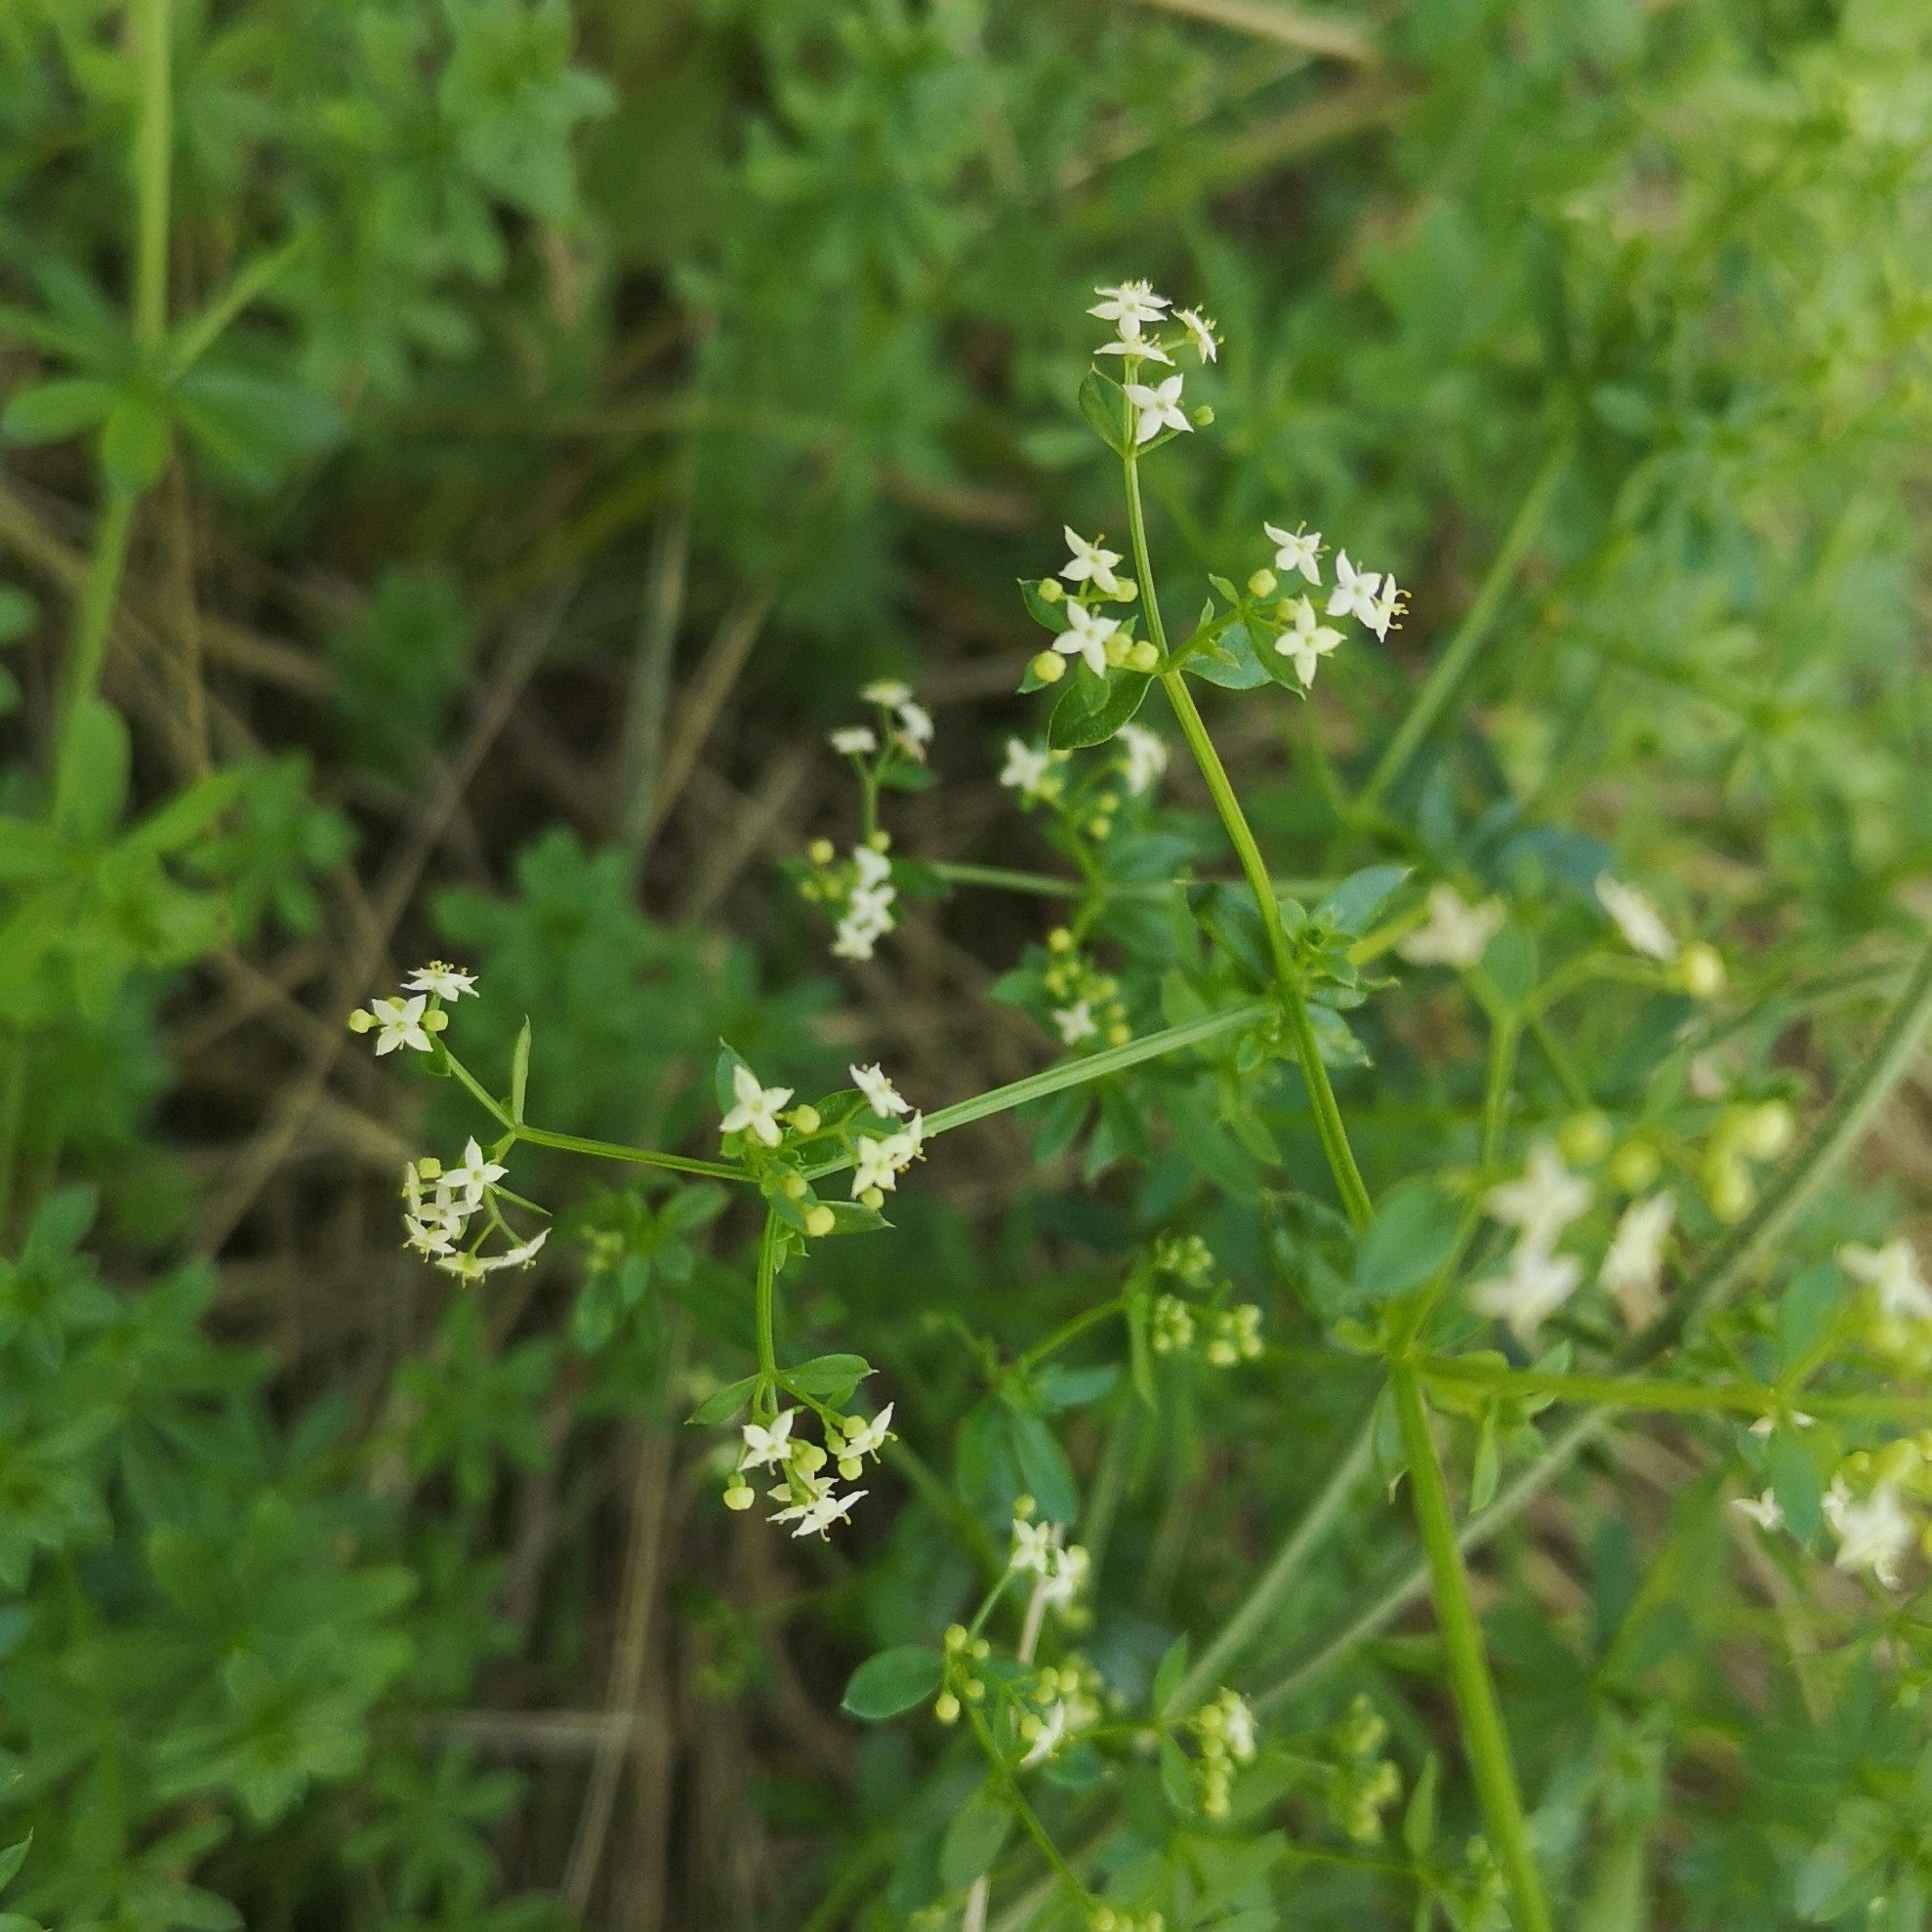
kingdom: Plantae
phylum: Tracheophyta
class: Magnoliopsida
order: Gentianales
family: Rubiaceae
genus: Galium
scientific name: Galium album
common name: White bedstraw
